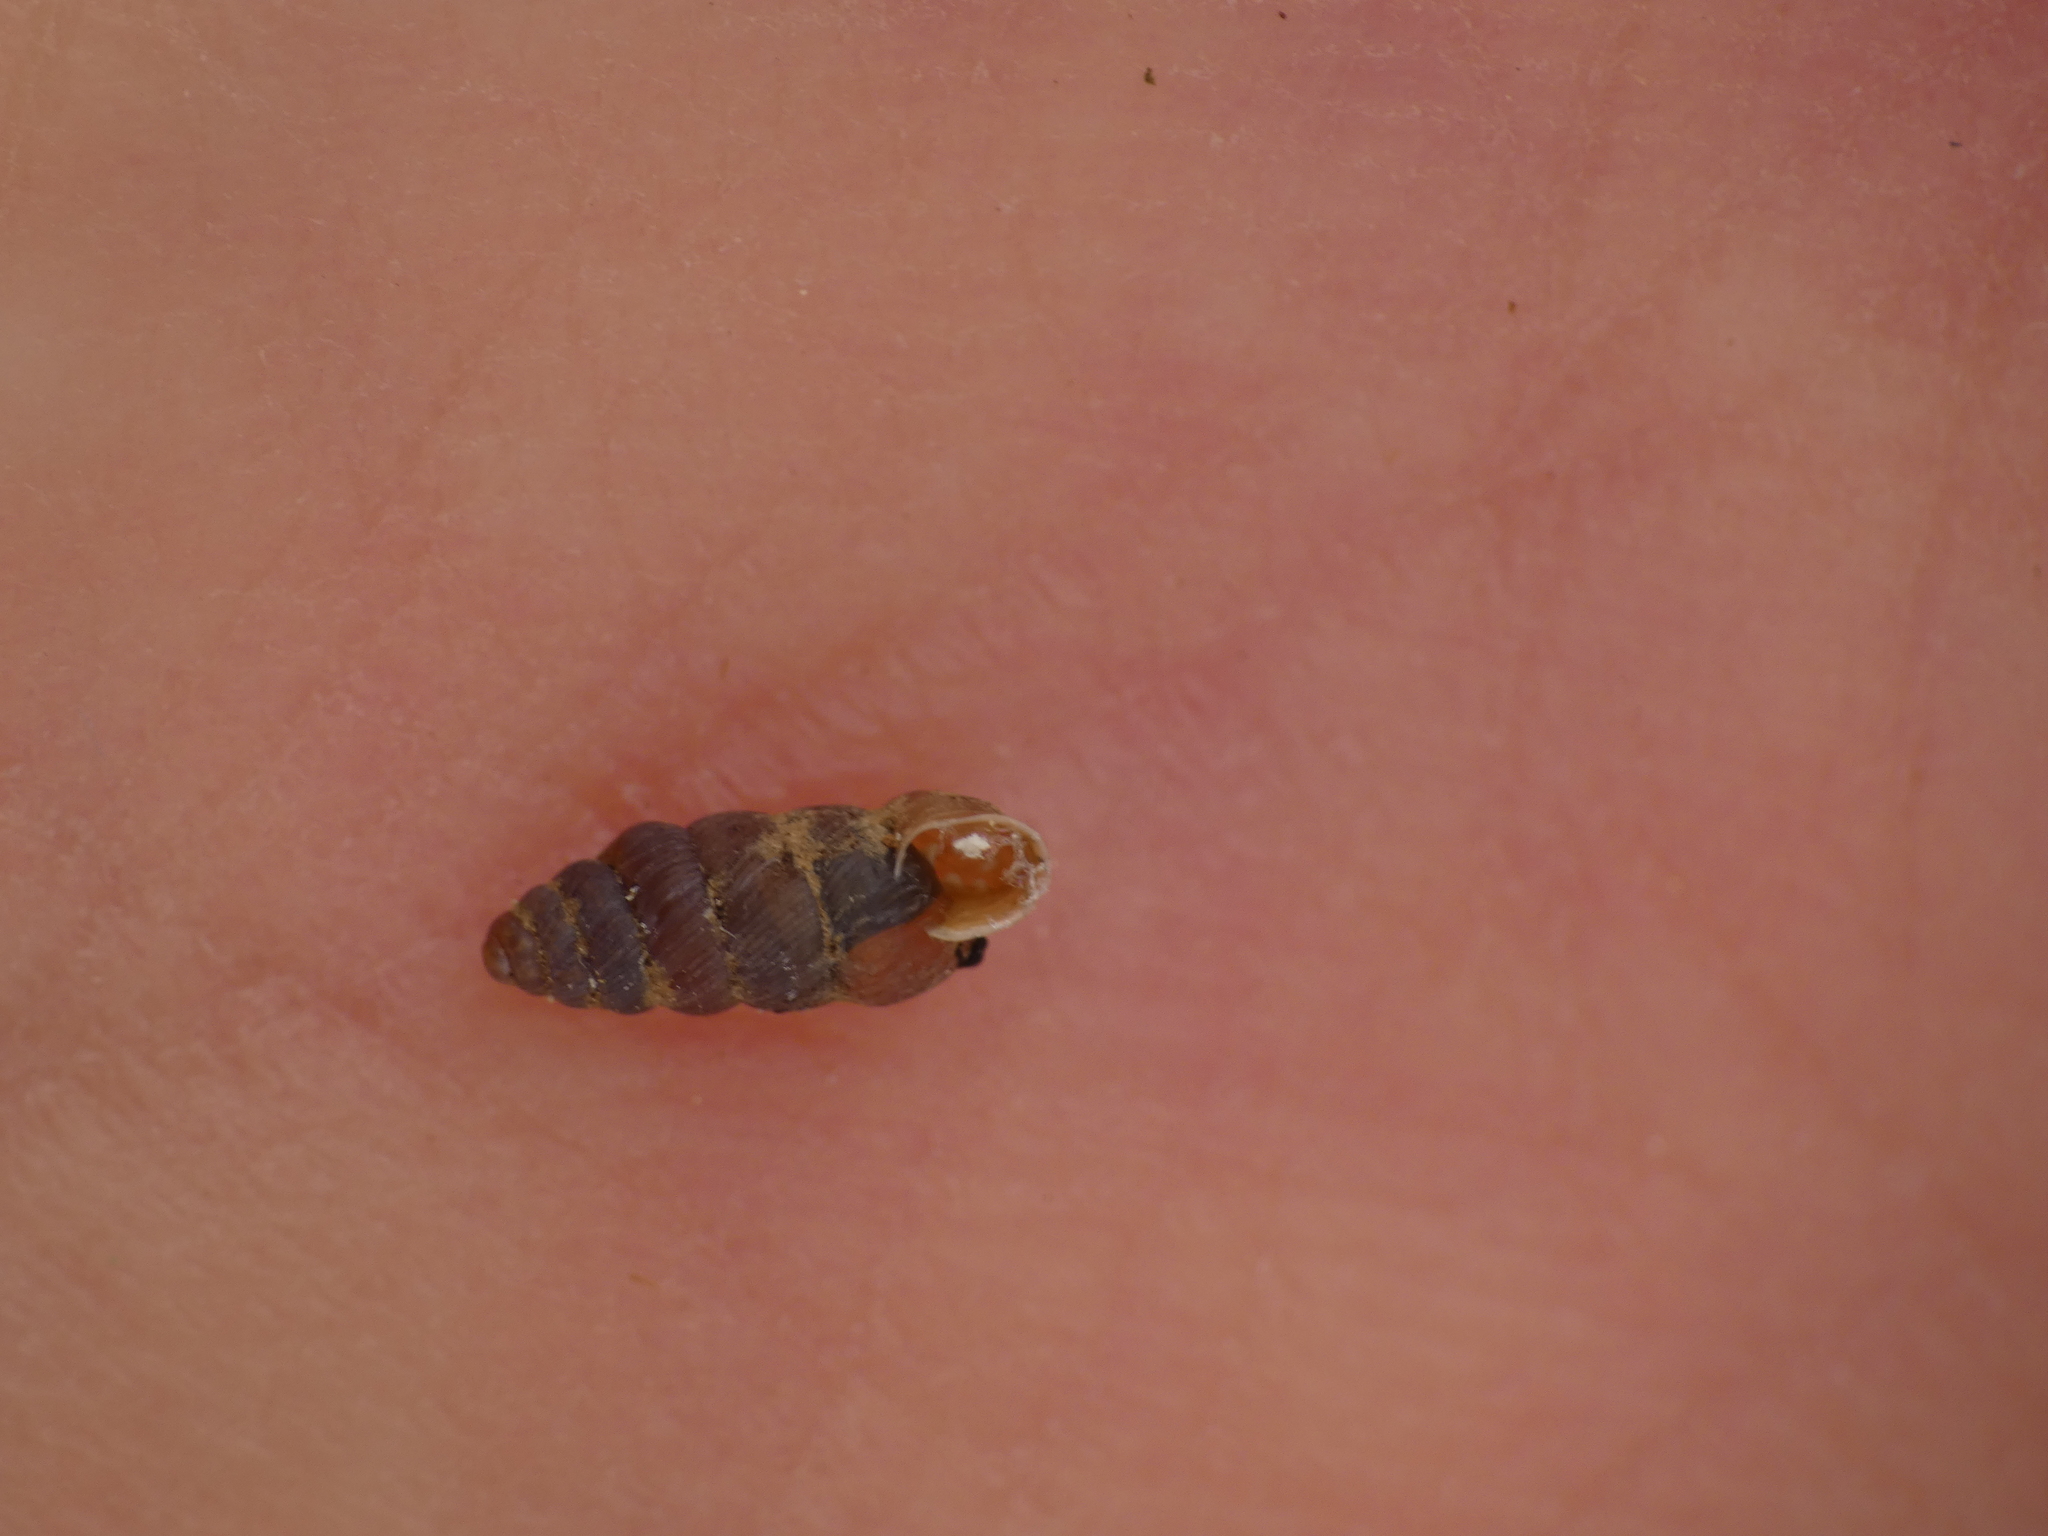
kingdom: Animalia
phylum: Mollusca
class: Gastropoda
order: Stylommatophora
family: Chondrinidae
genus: Granopupa
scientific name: Granopupa granum
